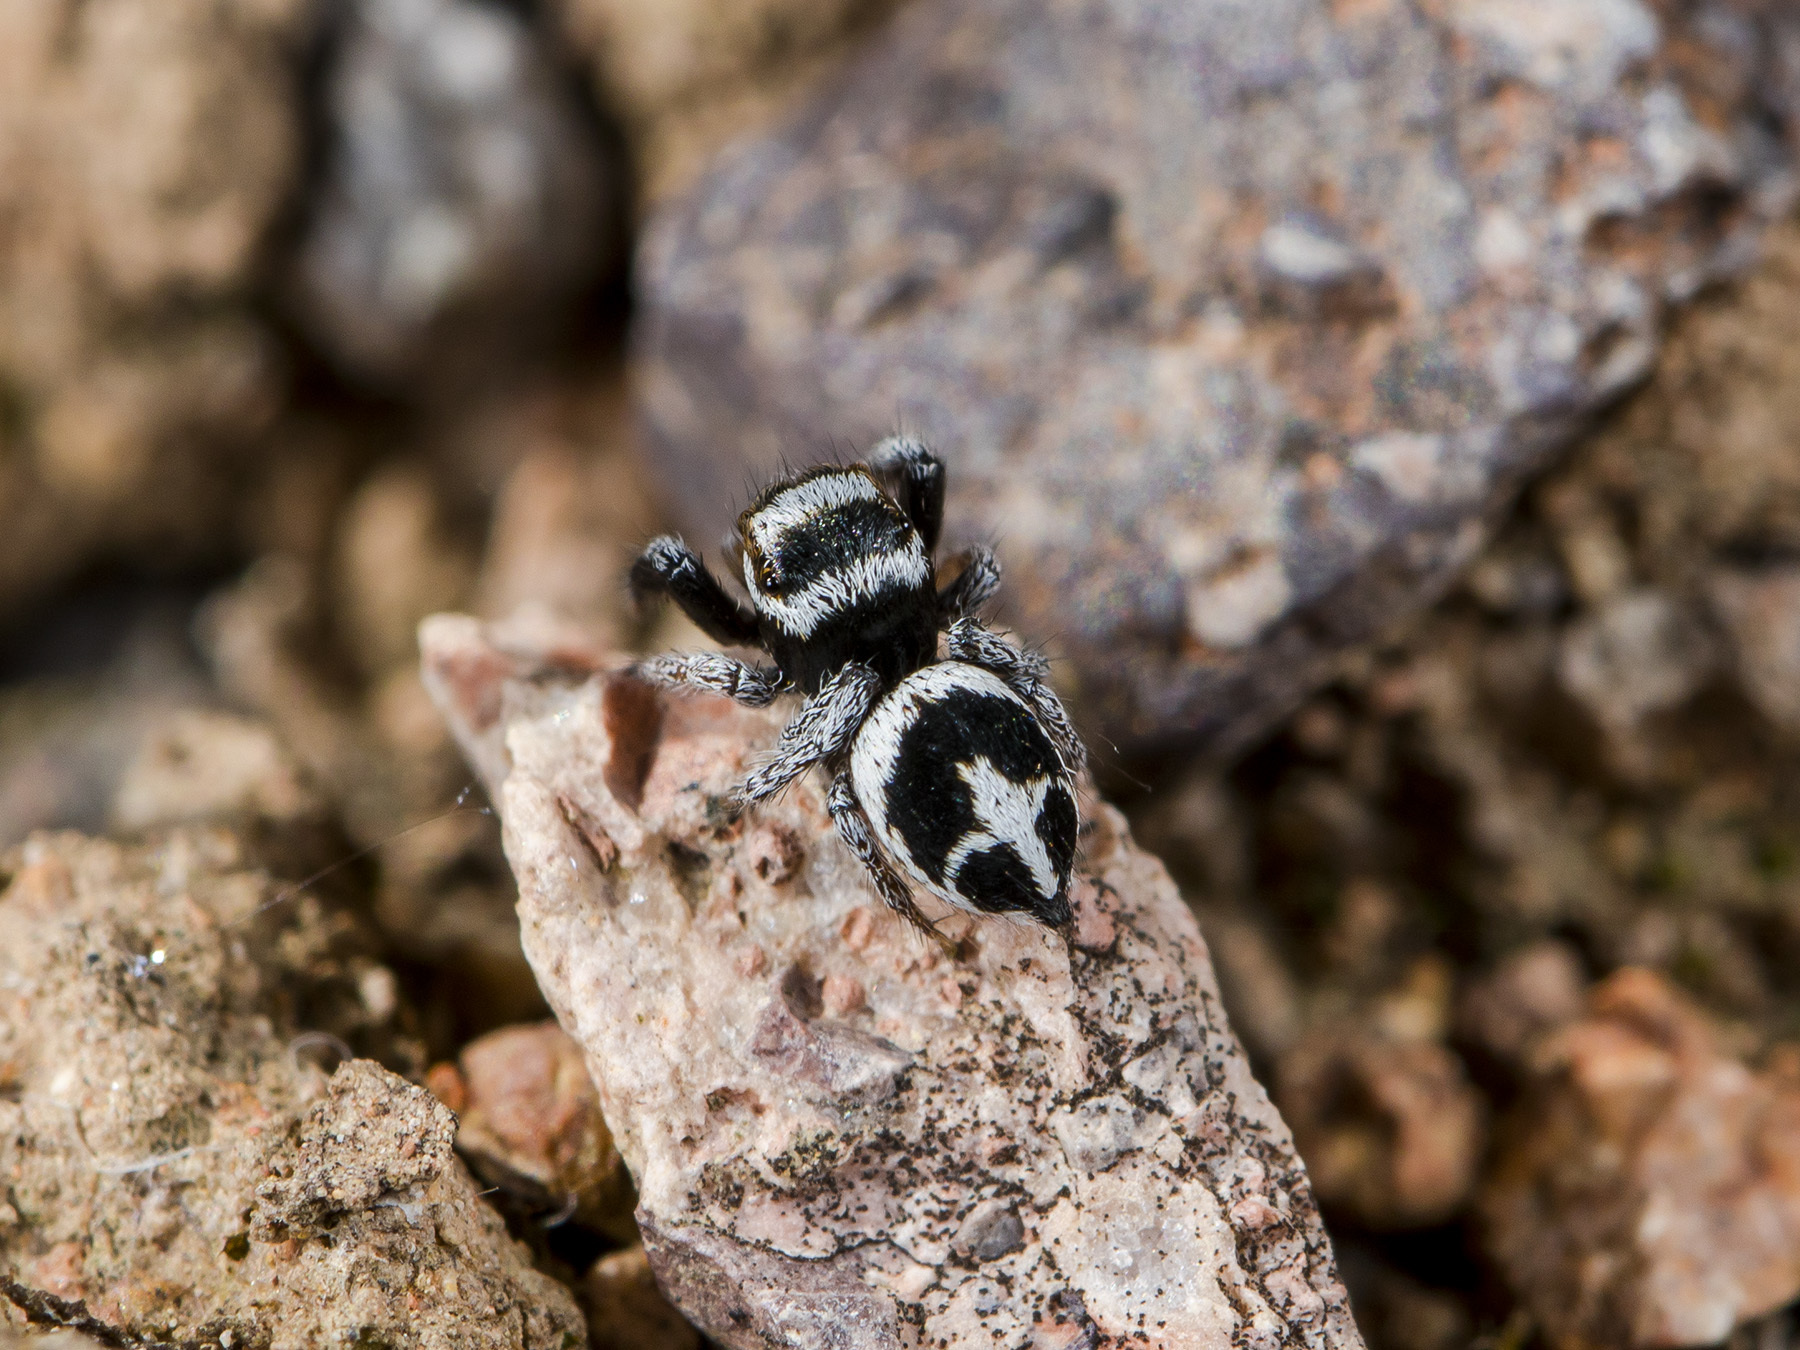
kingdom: Animalia
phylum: Arthropoda
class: Arachnida
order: Araneae
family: Salticidae
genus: Pellenes
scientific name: Pellenes geniculatus
